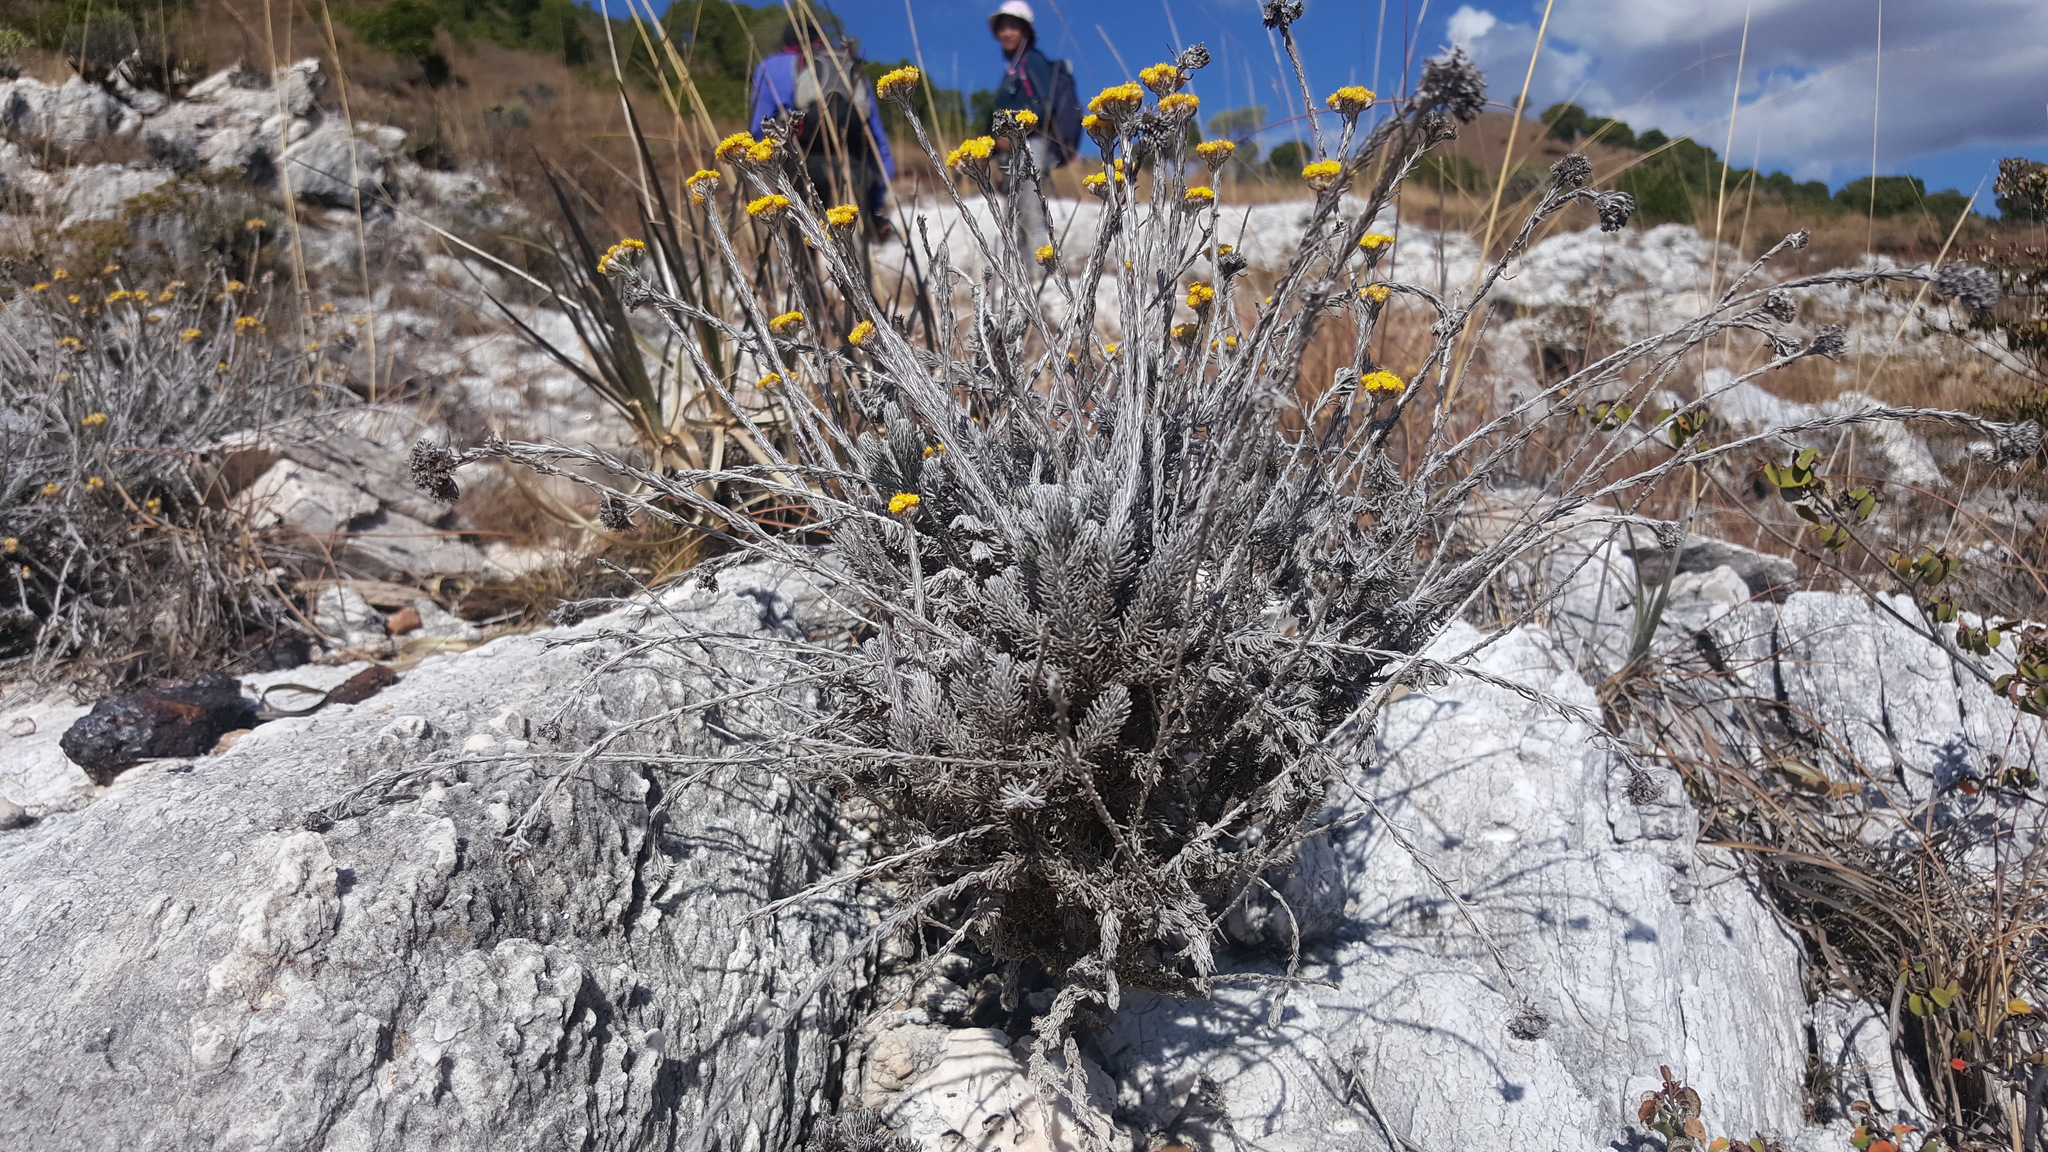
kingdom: Plantae
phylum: Tracheophyta
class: Magnoliopsida
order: Asterales
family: Asteraceae
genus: Helichrysum
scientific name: Helichrysum manopappoides
